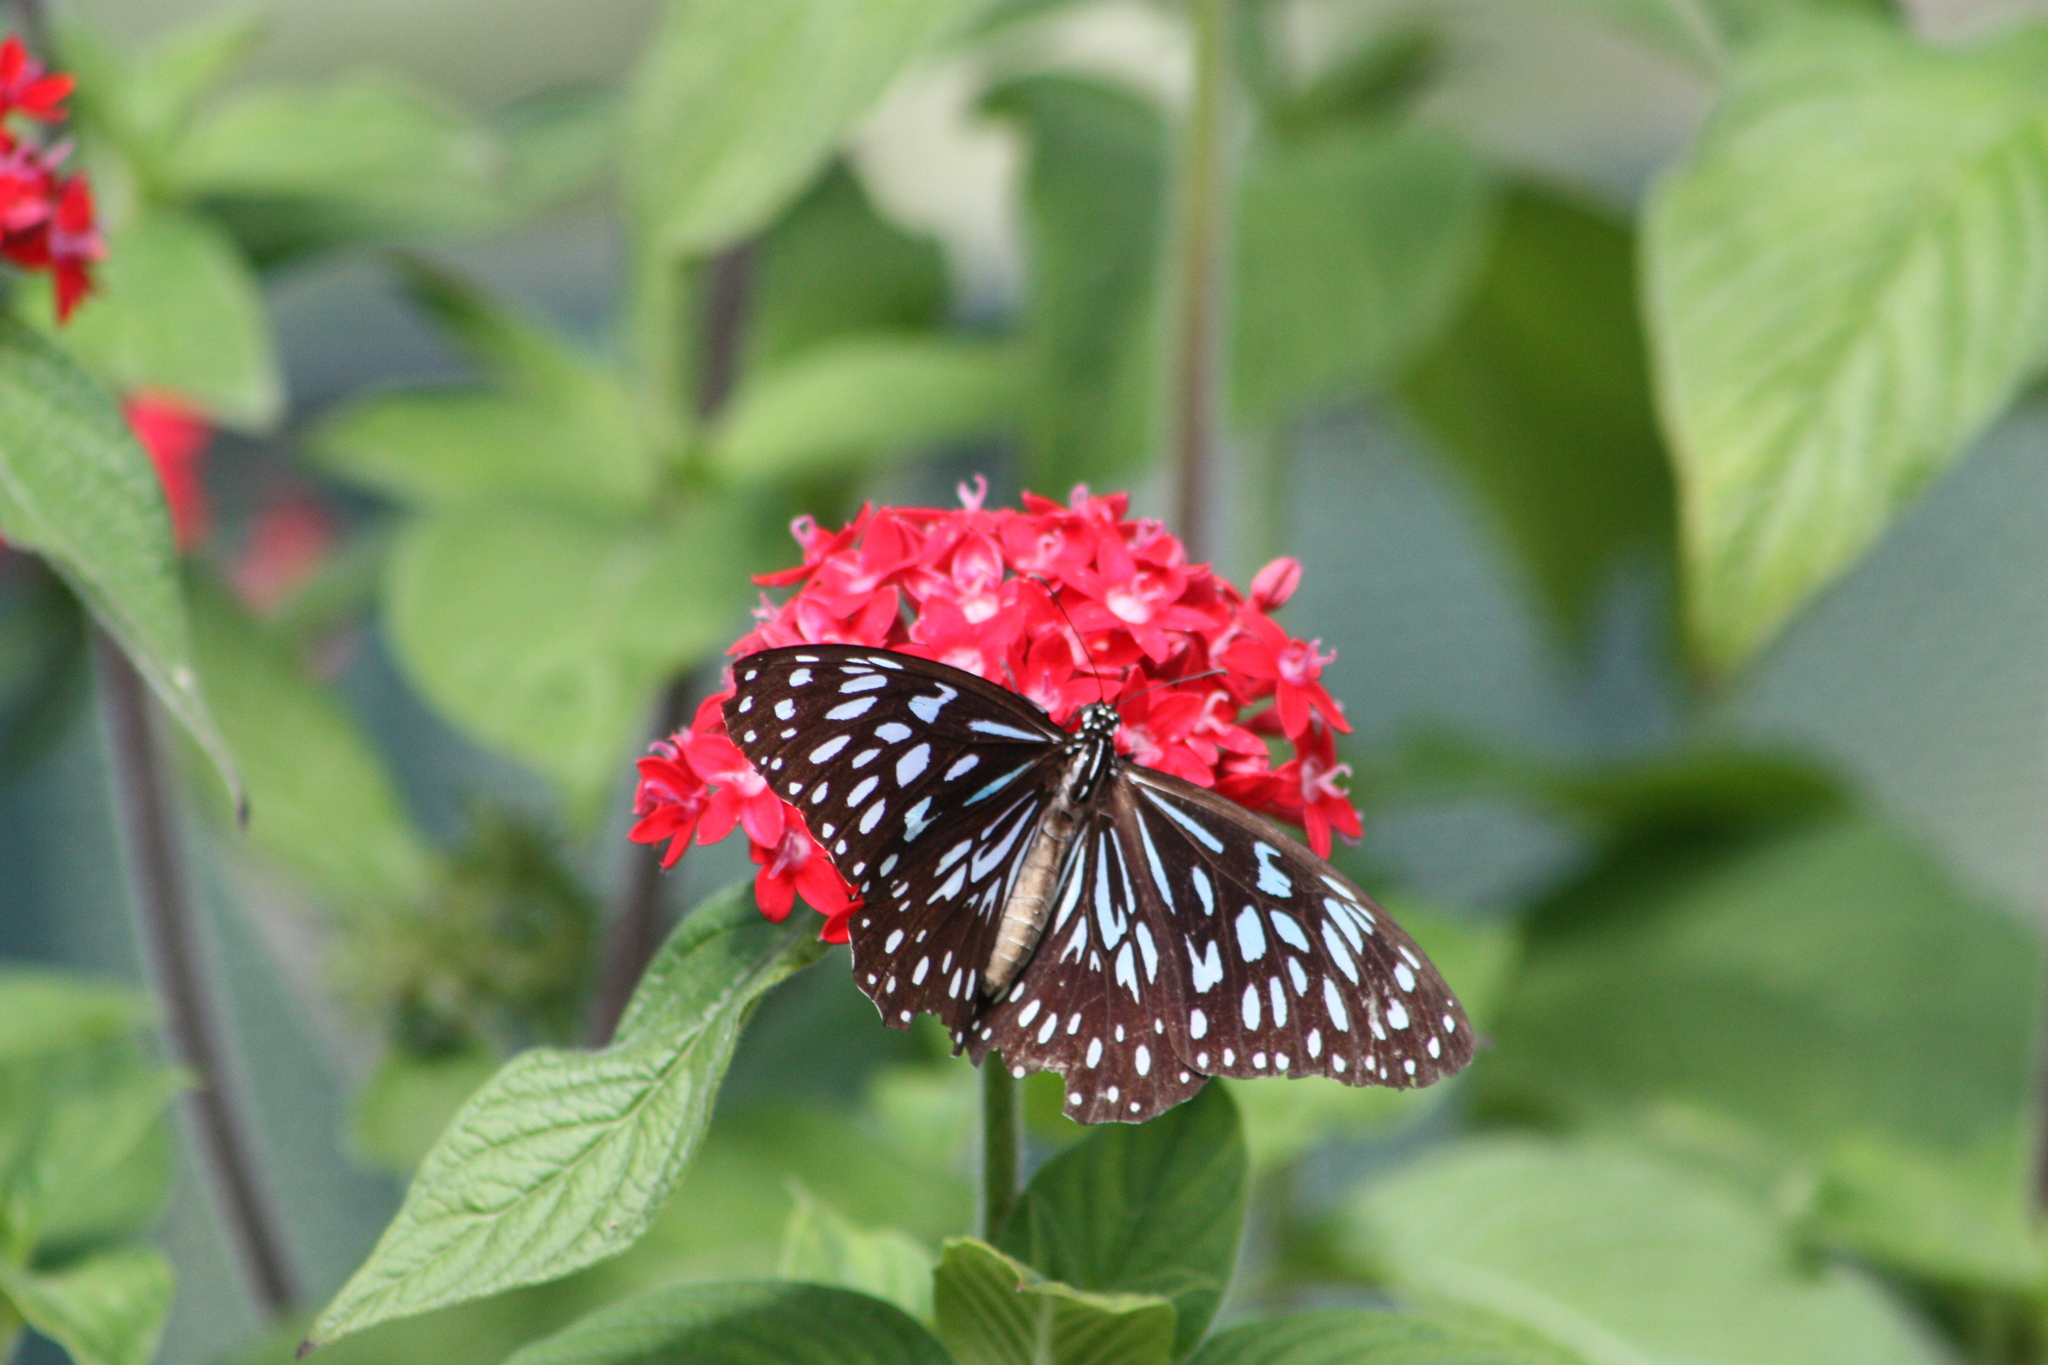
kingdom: Animalia
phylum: Arthropoda
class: Insecta
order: Lepidoptera
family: Nymphalidae
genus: Tirumala
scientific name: Tirumala hamata
